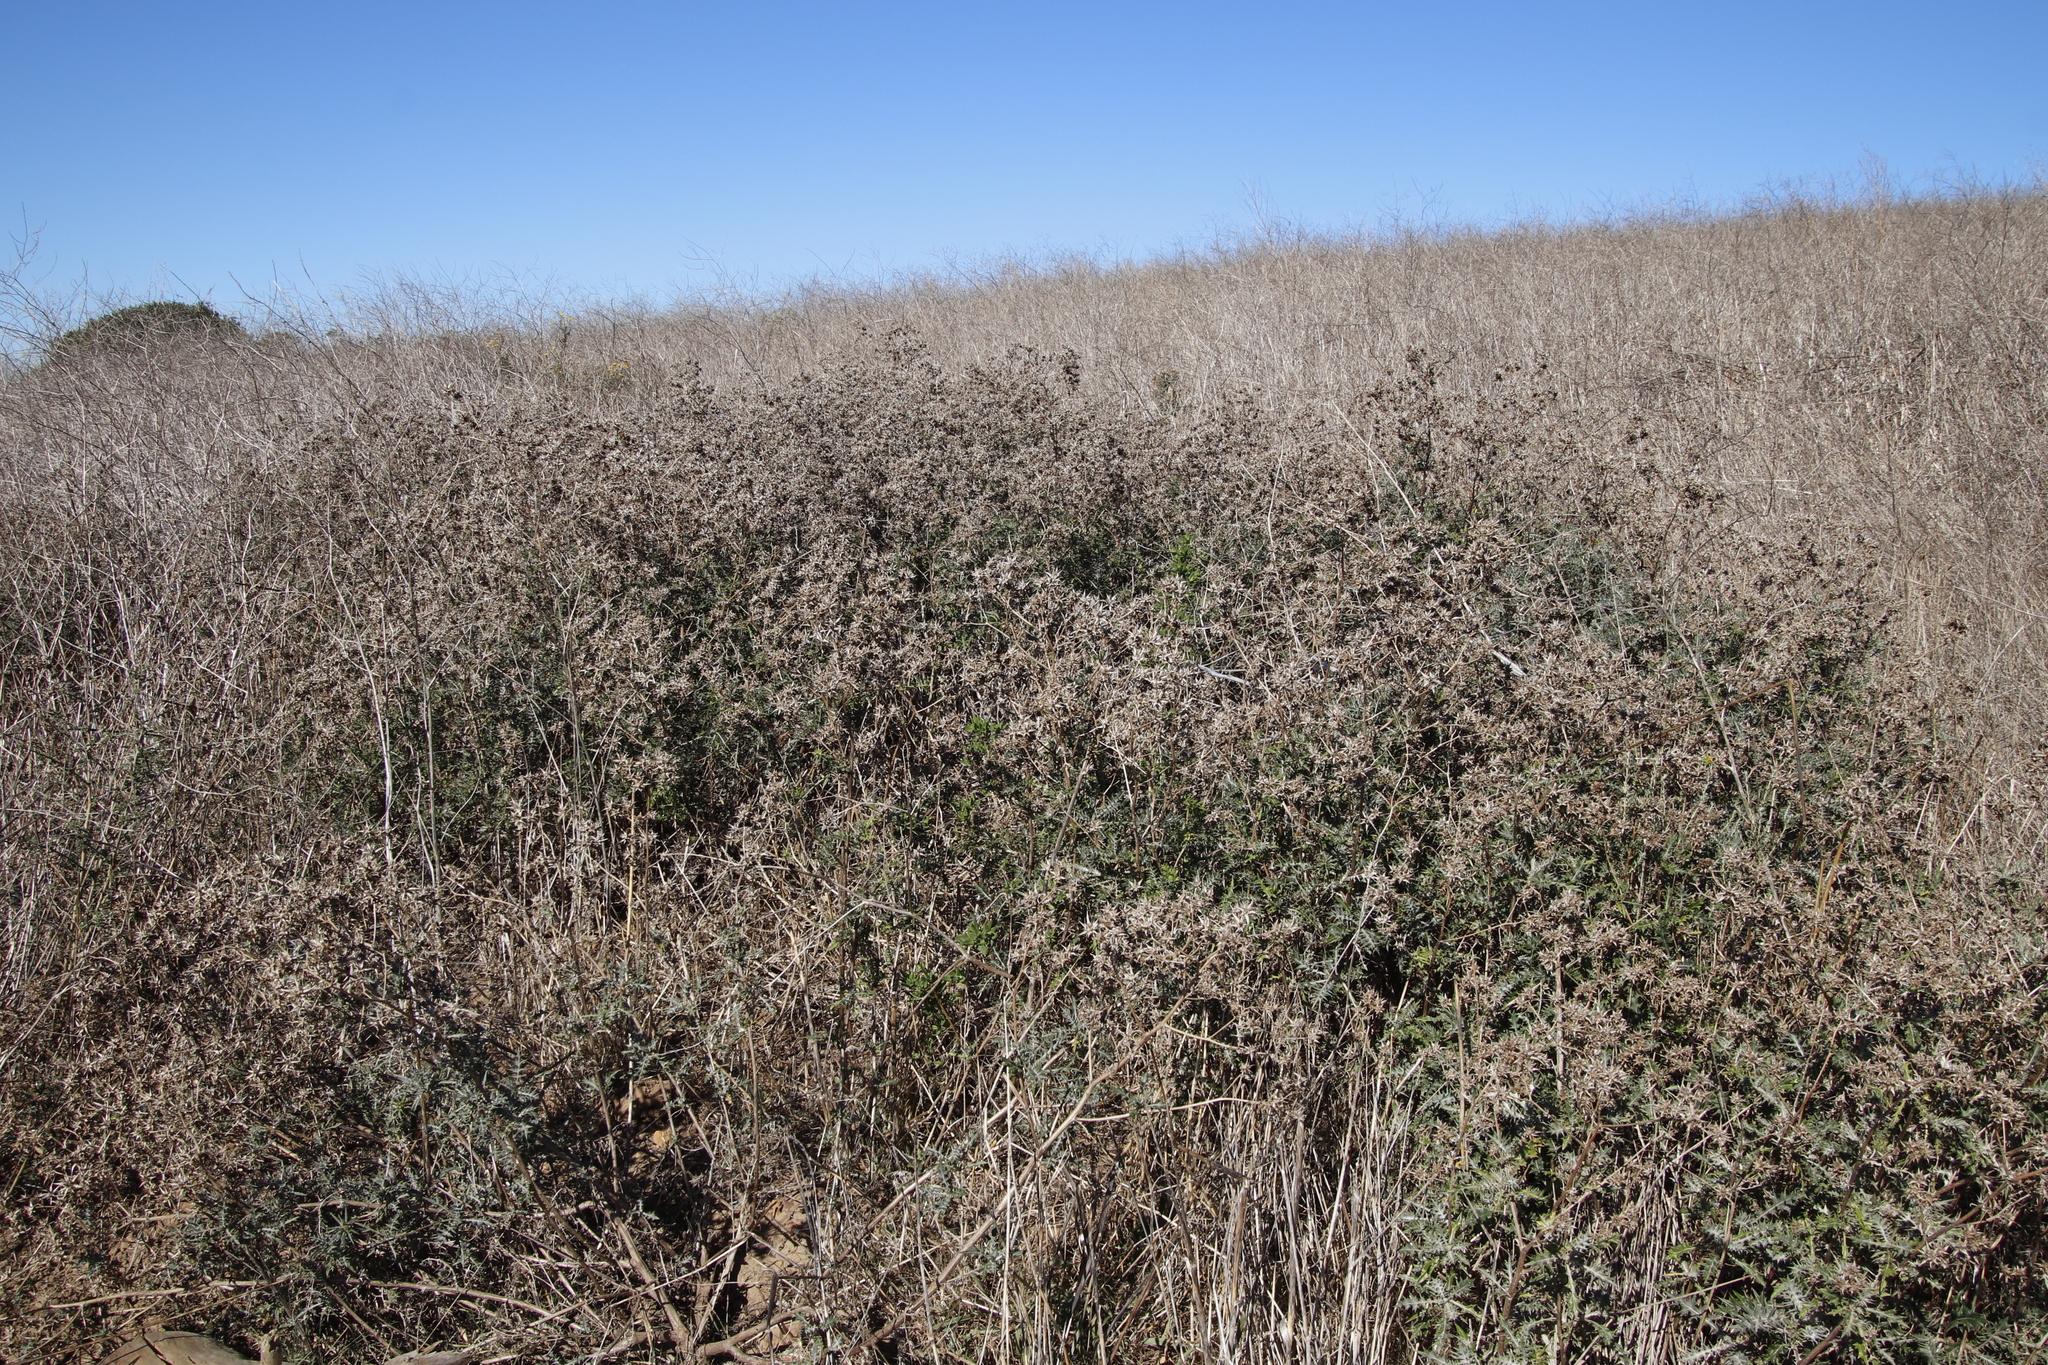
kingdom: Plantae
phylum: Tracheophyta
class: Magnoliopsida
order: Asterales
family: Asteraceae
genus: Berkheya
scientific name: Berkheya rigida
